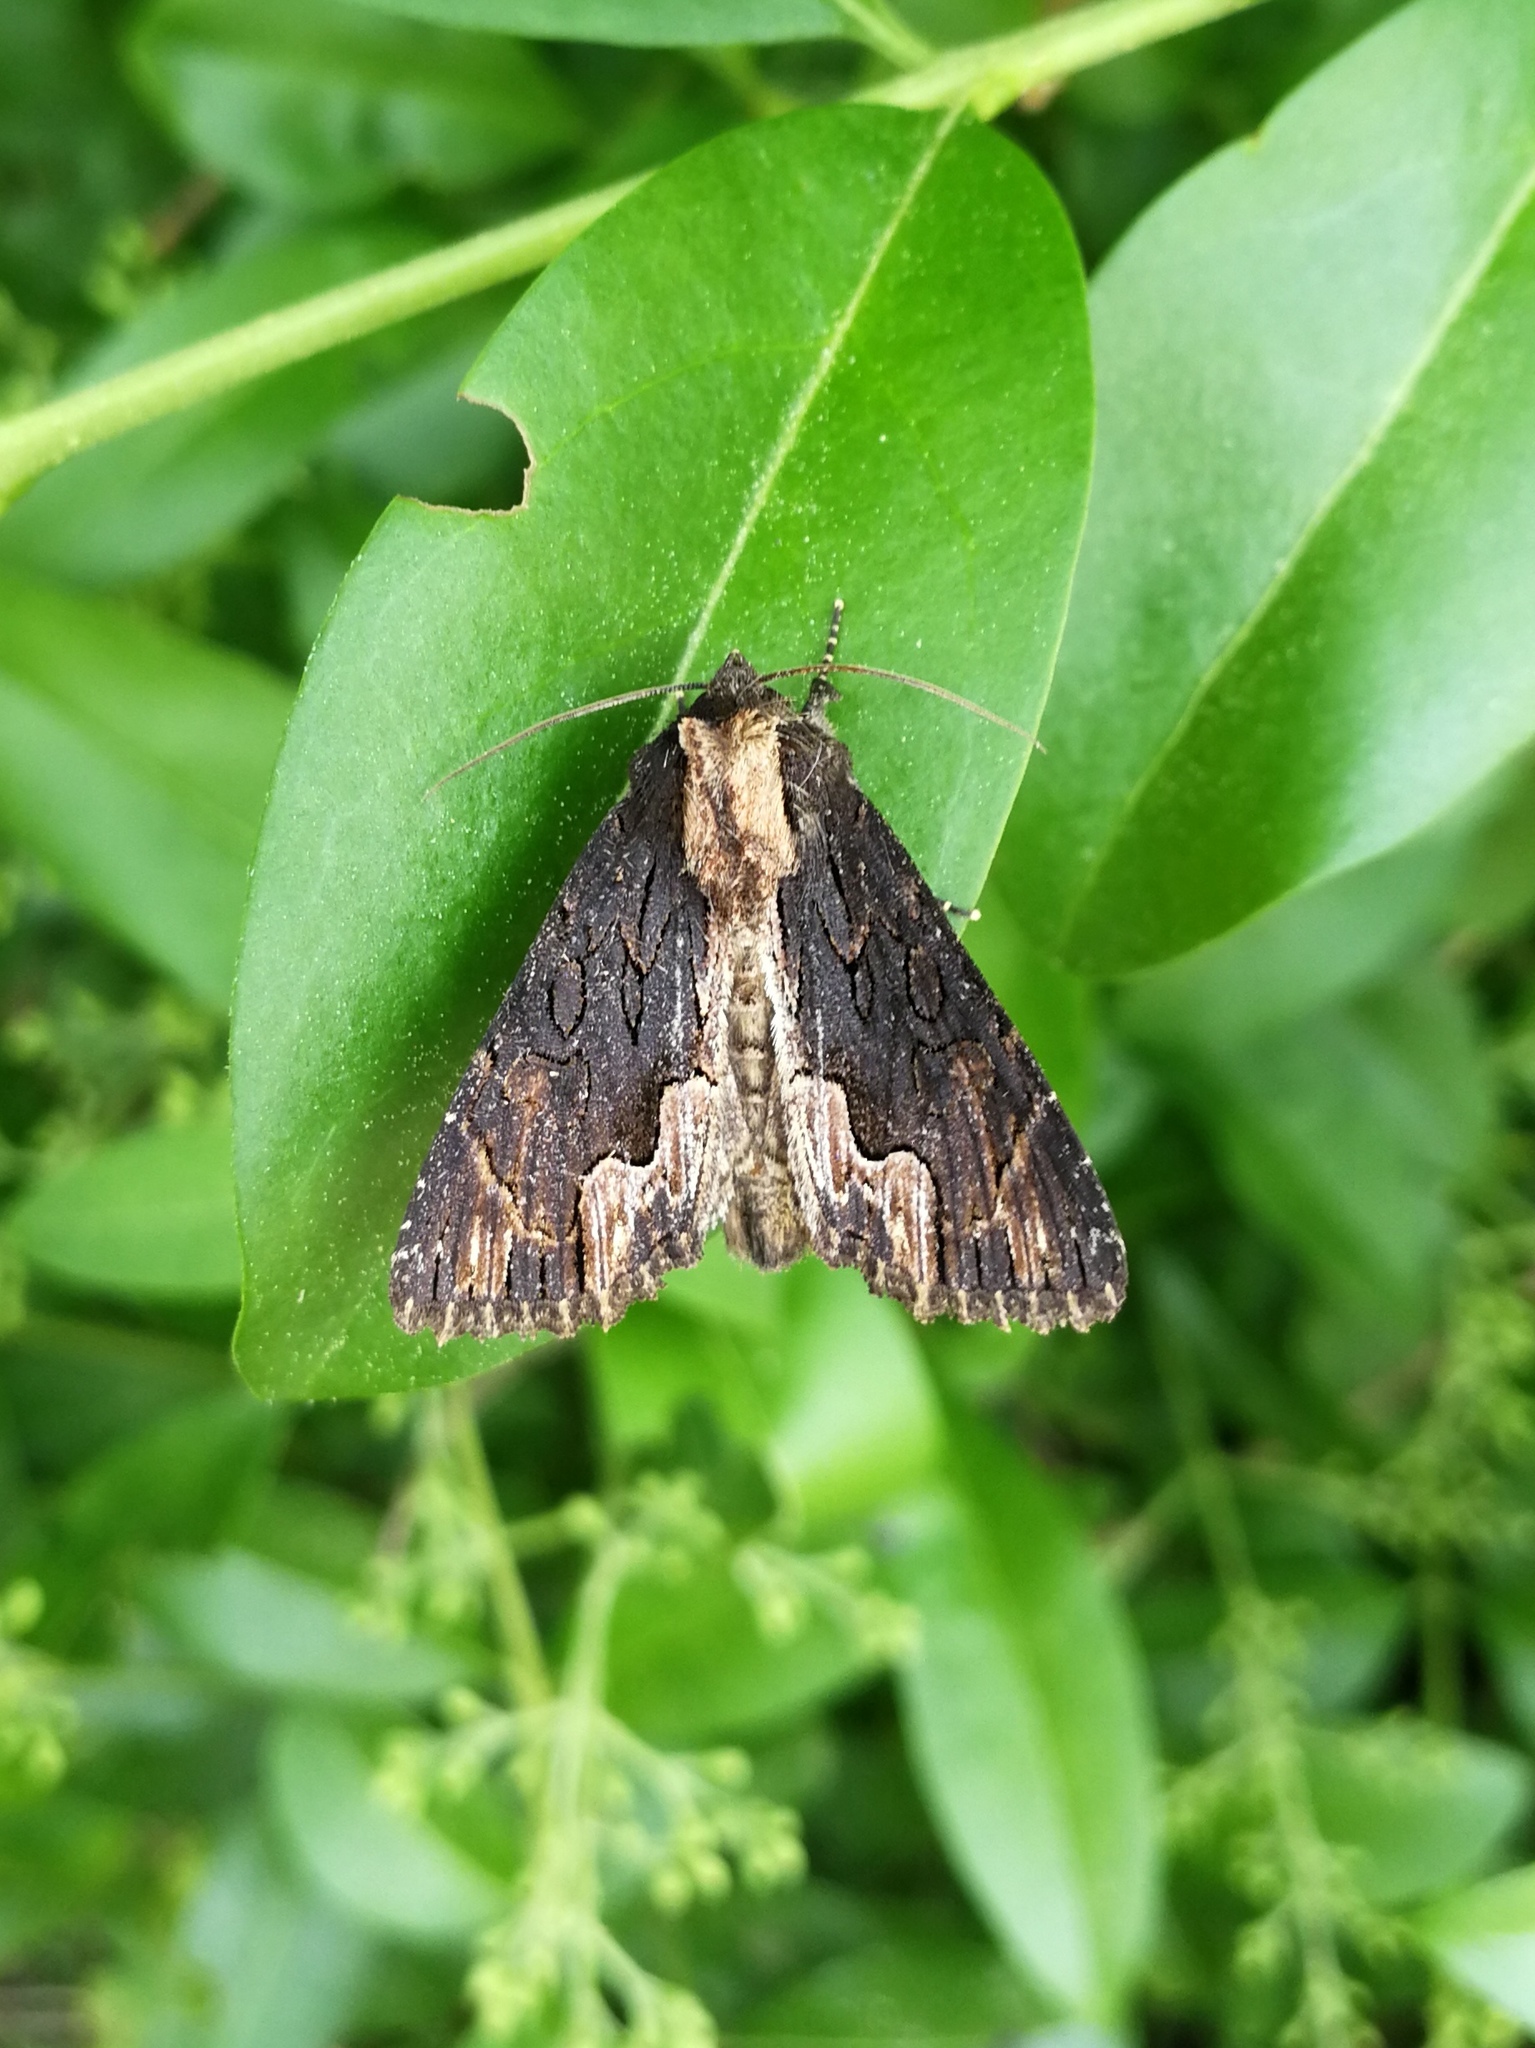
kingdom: Animalia
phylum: Arthropoda
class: Insecta
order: Lepidoptera
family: Noctuidae
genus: Dypterygia
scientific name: Dypterygia scabriuscula
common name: Bird's wing
